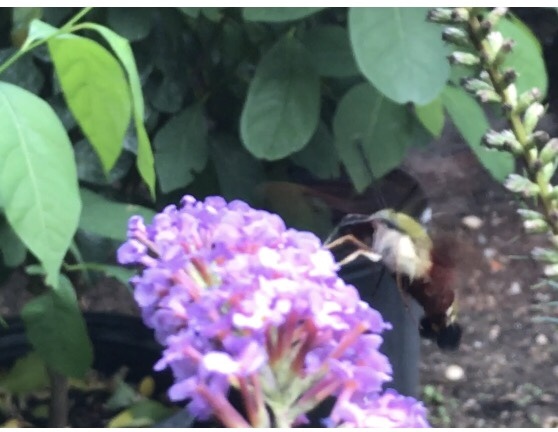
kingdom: Animalia
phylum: Arthropoda
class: Insecta
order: Lepidoptera
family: Sphingidae
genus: Hemaris
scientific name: Hemaris thysbe
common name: Common clear-wing
